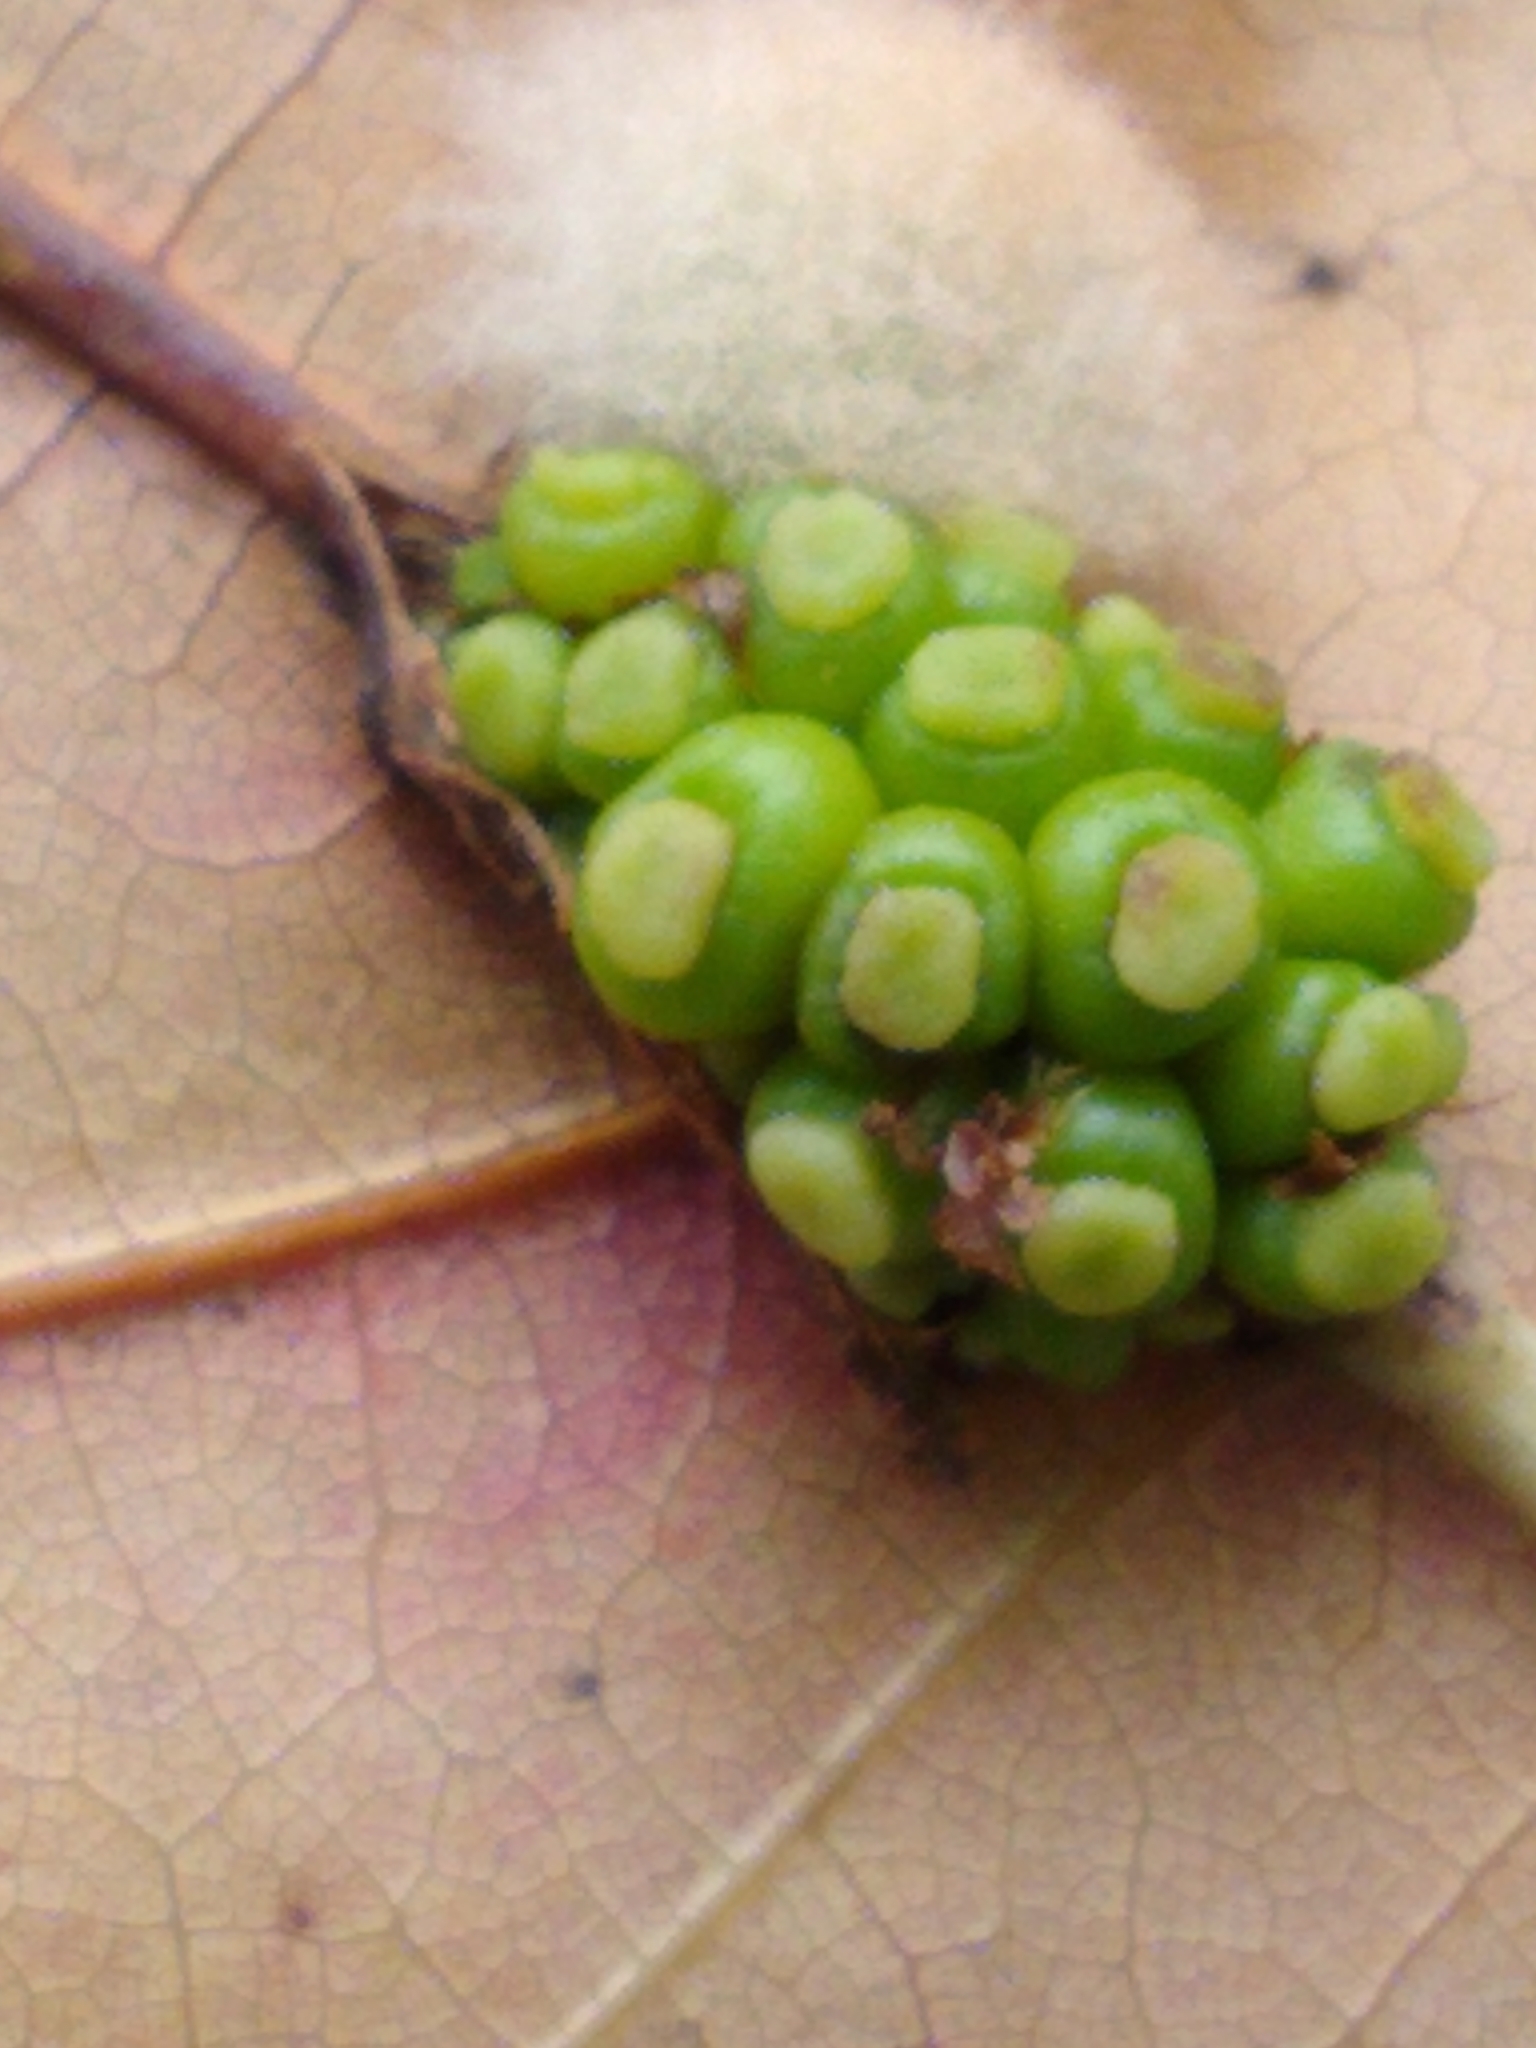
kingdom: Animalia
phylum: Arthropoda
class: Insecta
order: Hymenoptera
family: Cynipidae
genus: Kokkocynips
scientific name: Kokkocynips decidua
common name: Oak wheat gall
